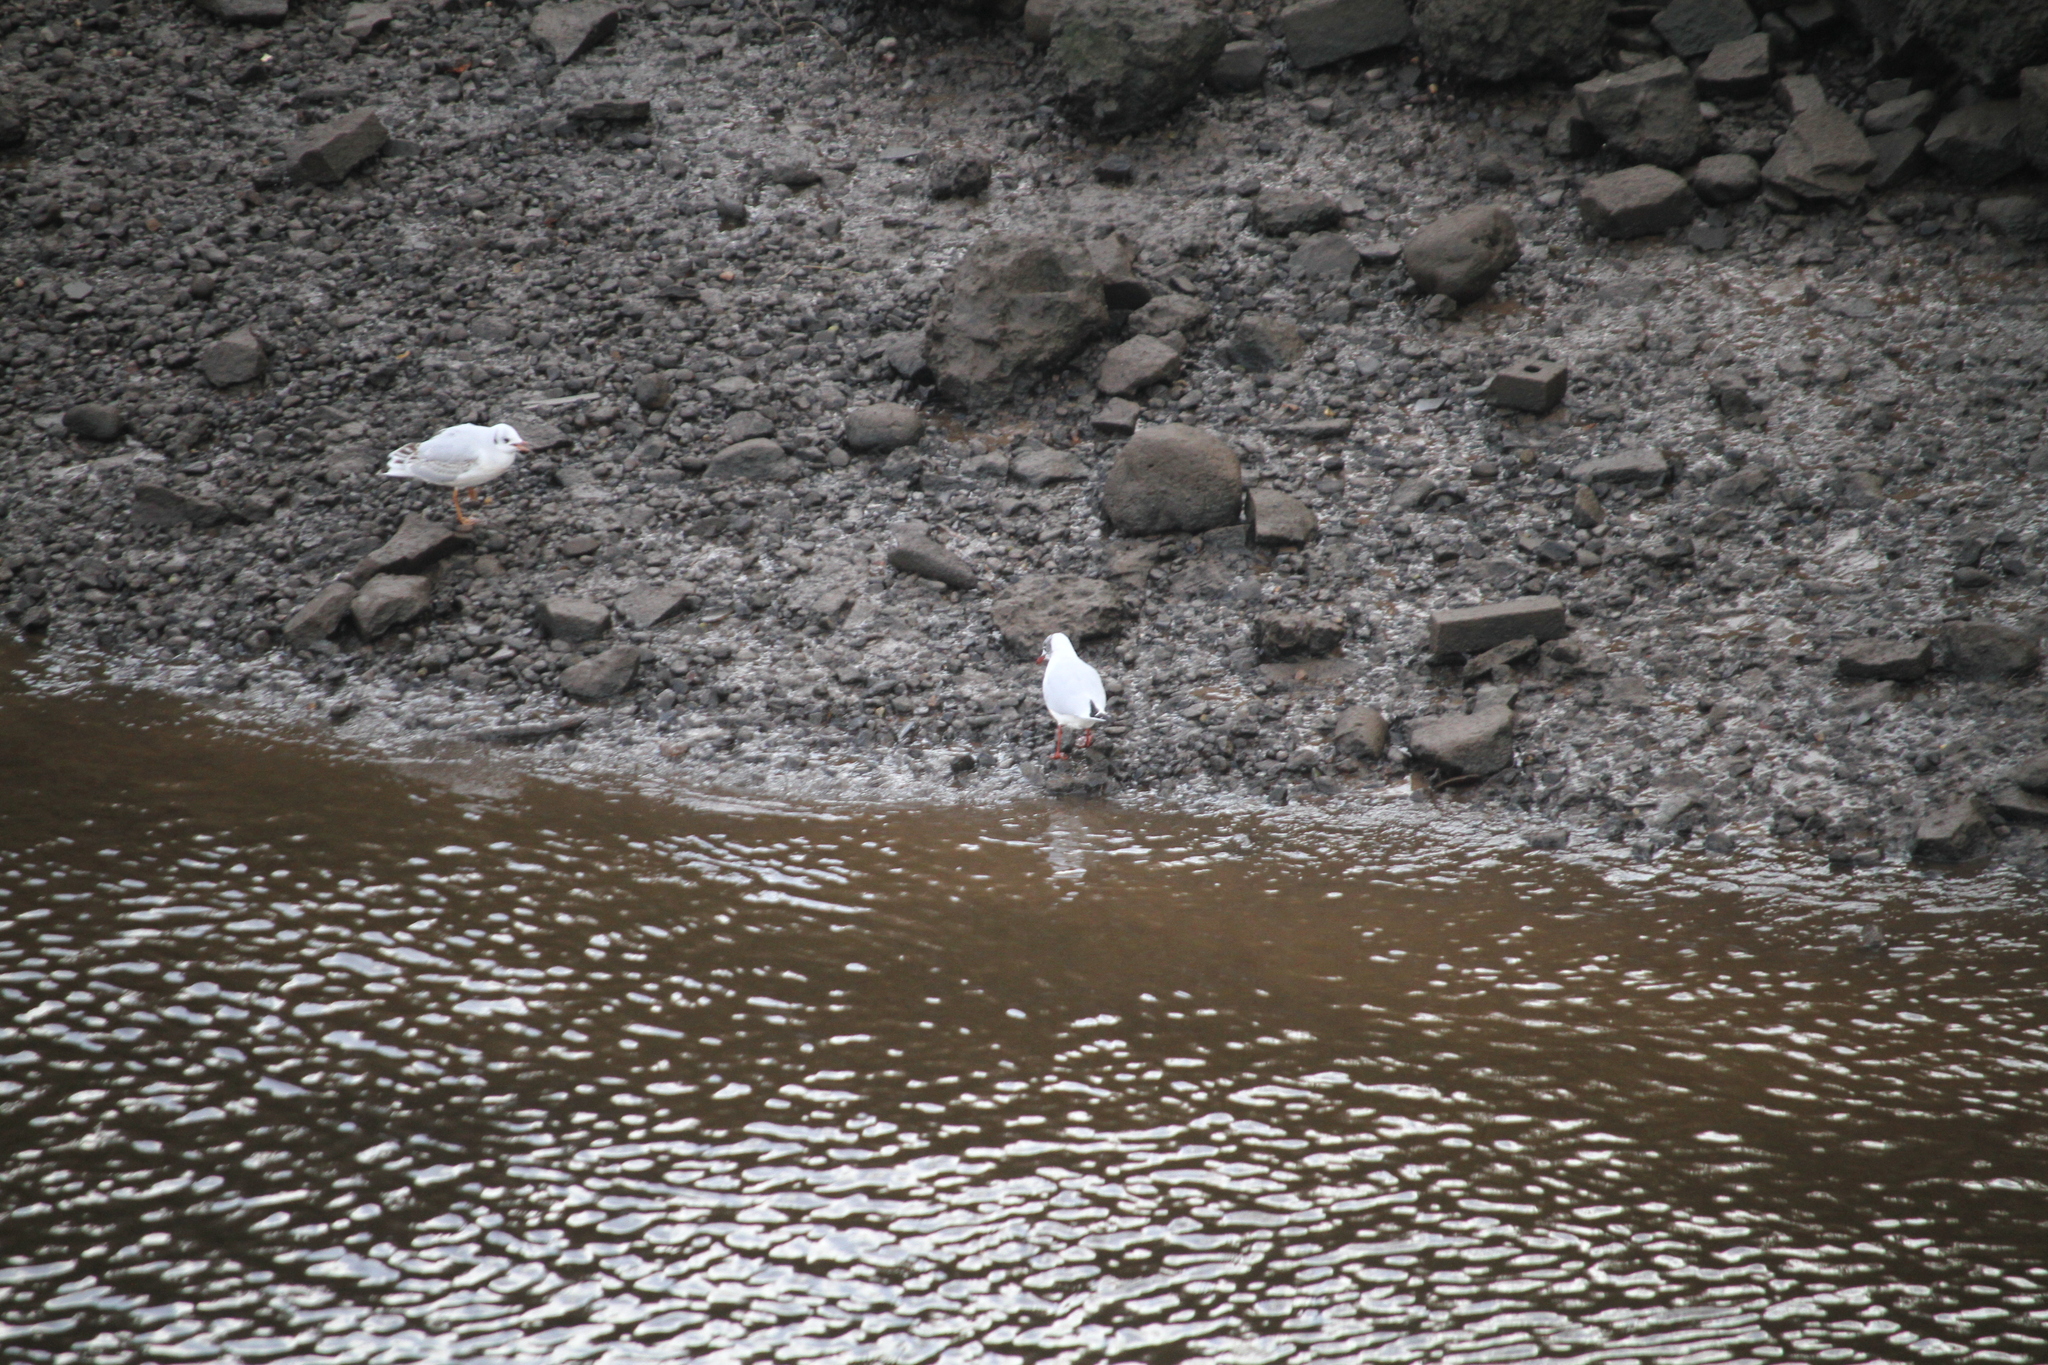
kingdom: Animalia
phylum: Chordata
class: Aves
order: Charadriiformes
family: Laridae
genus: Chroicocephalus
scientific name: Chroicocephalus ridibundus
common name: Black-headed gull
